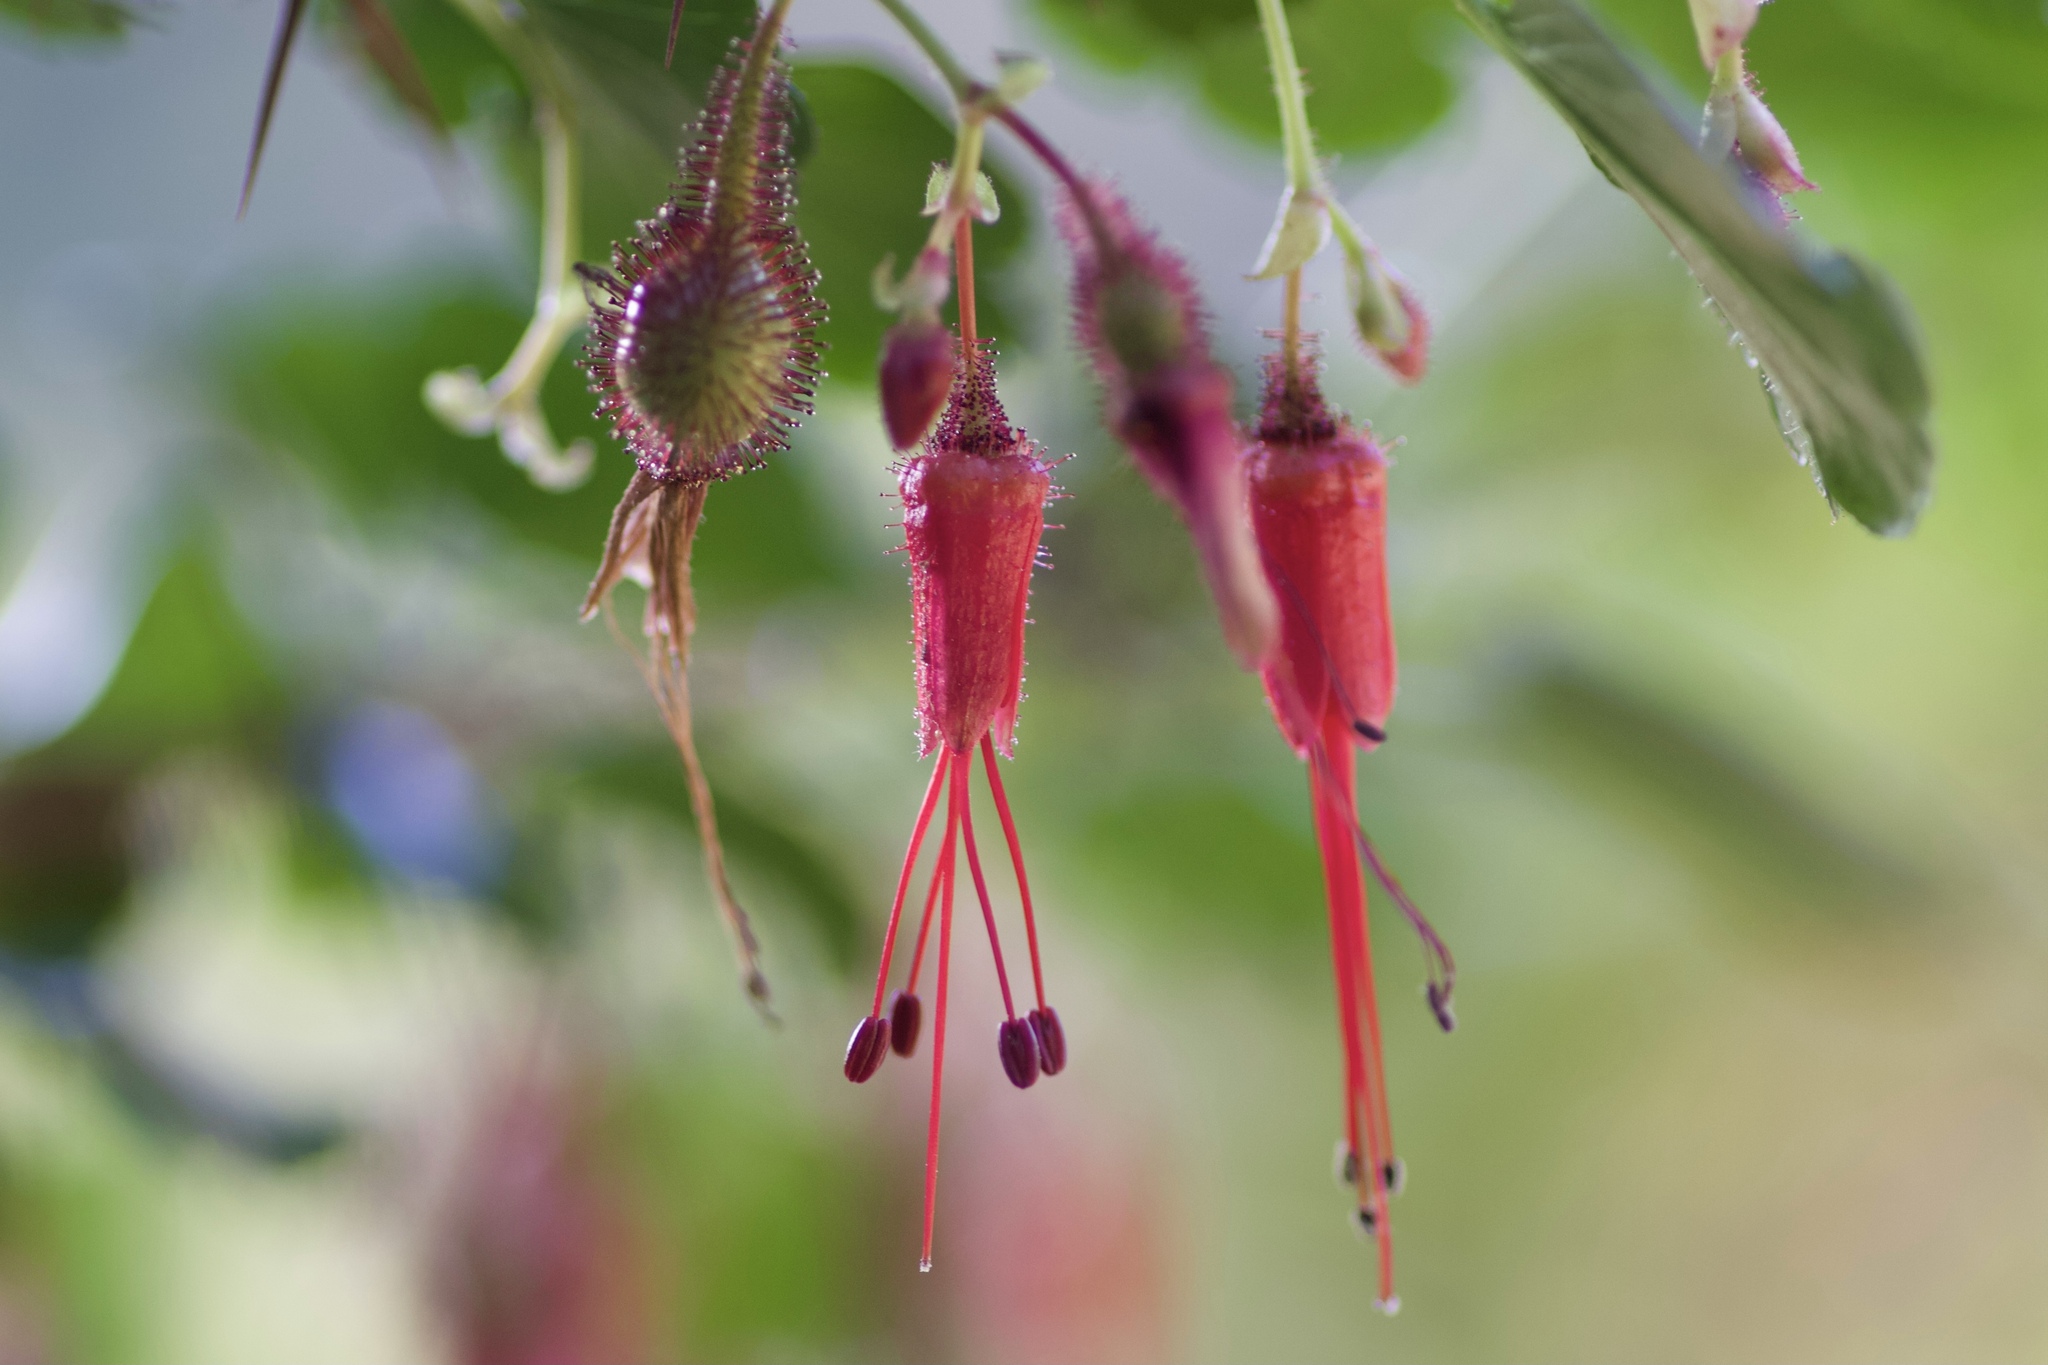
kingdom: Plantae
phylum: Tracheophyta
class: Magnoliopsida
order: Saxifragales
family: Grossulariaceae
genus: Ribes
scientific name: Ribes speciosum
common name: Fuchsia-flower gooseberry
